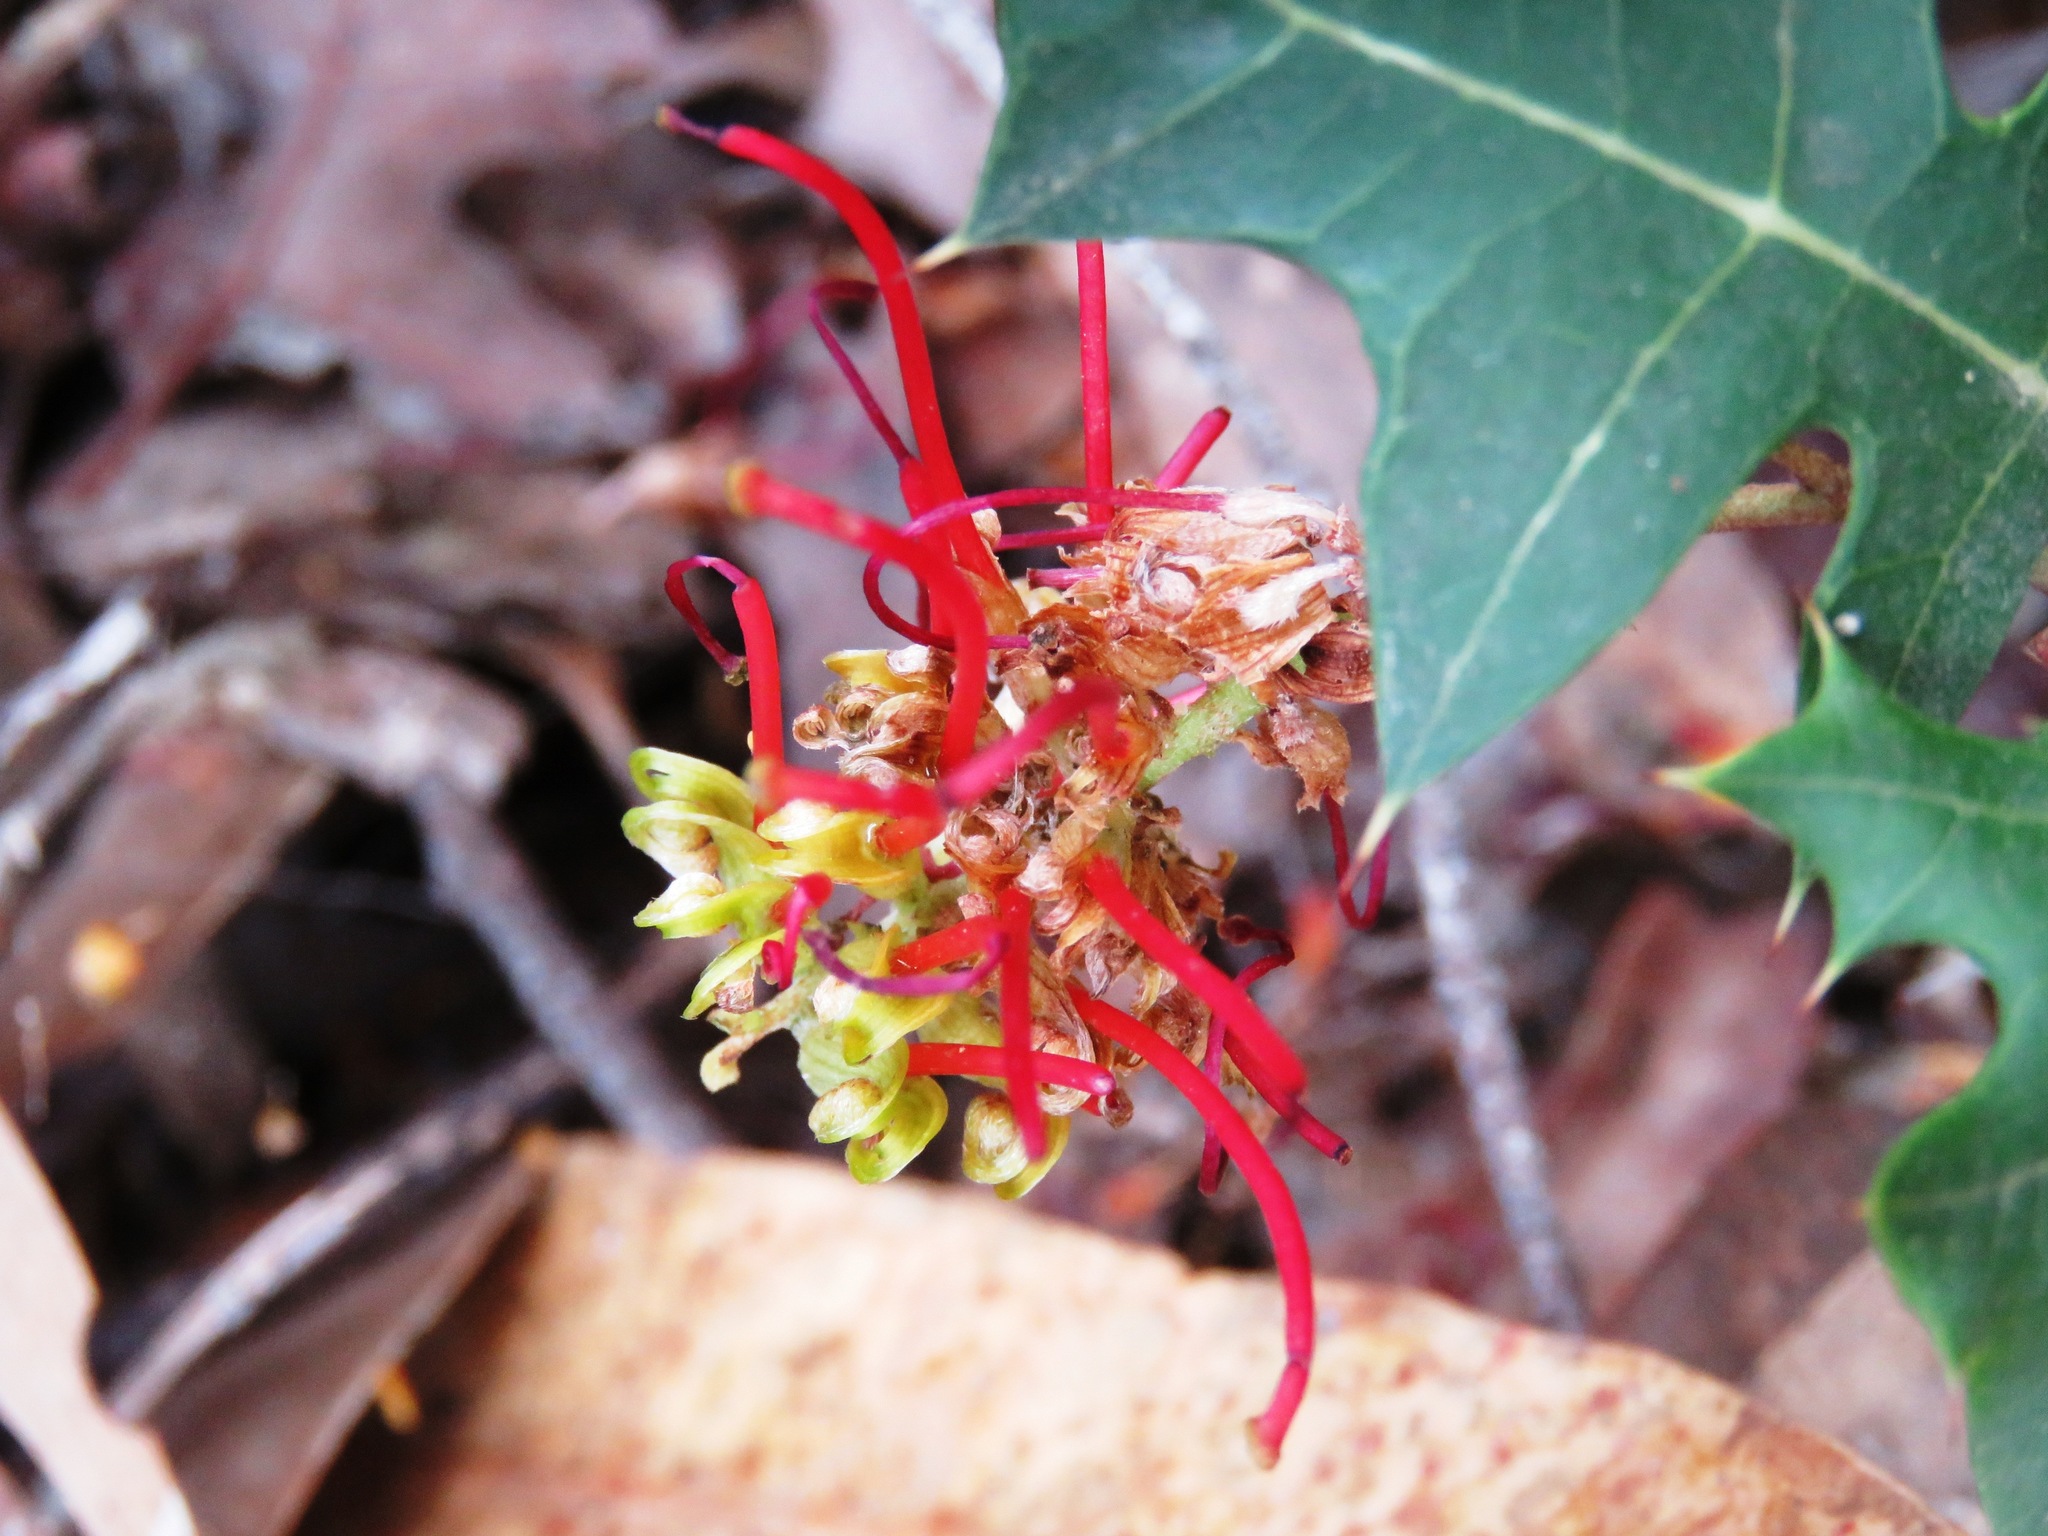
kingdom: Plantae
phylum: Tracheophyta
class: Magnoliopsida
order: Proteales
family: Proteaceae
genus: Grevillea
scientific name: Grevillea steiglitziana
